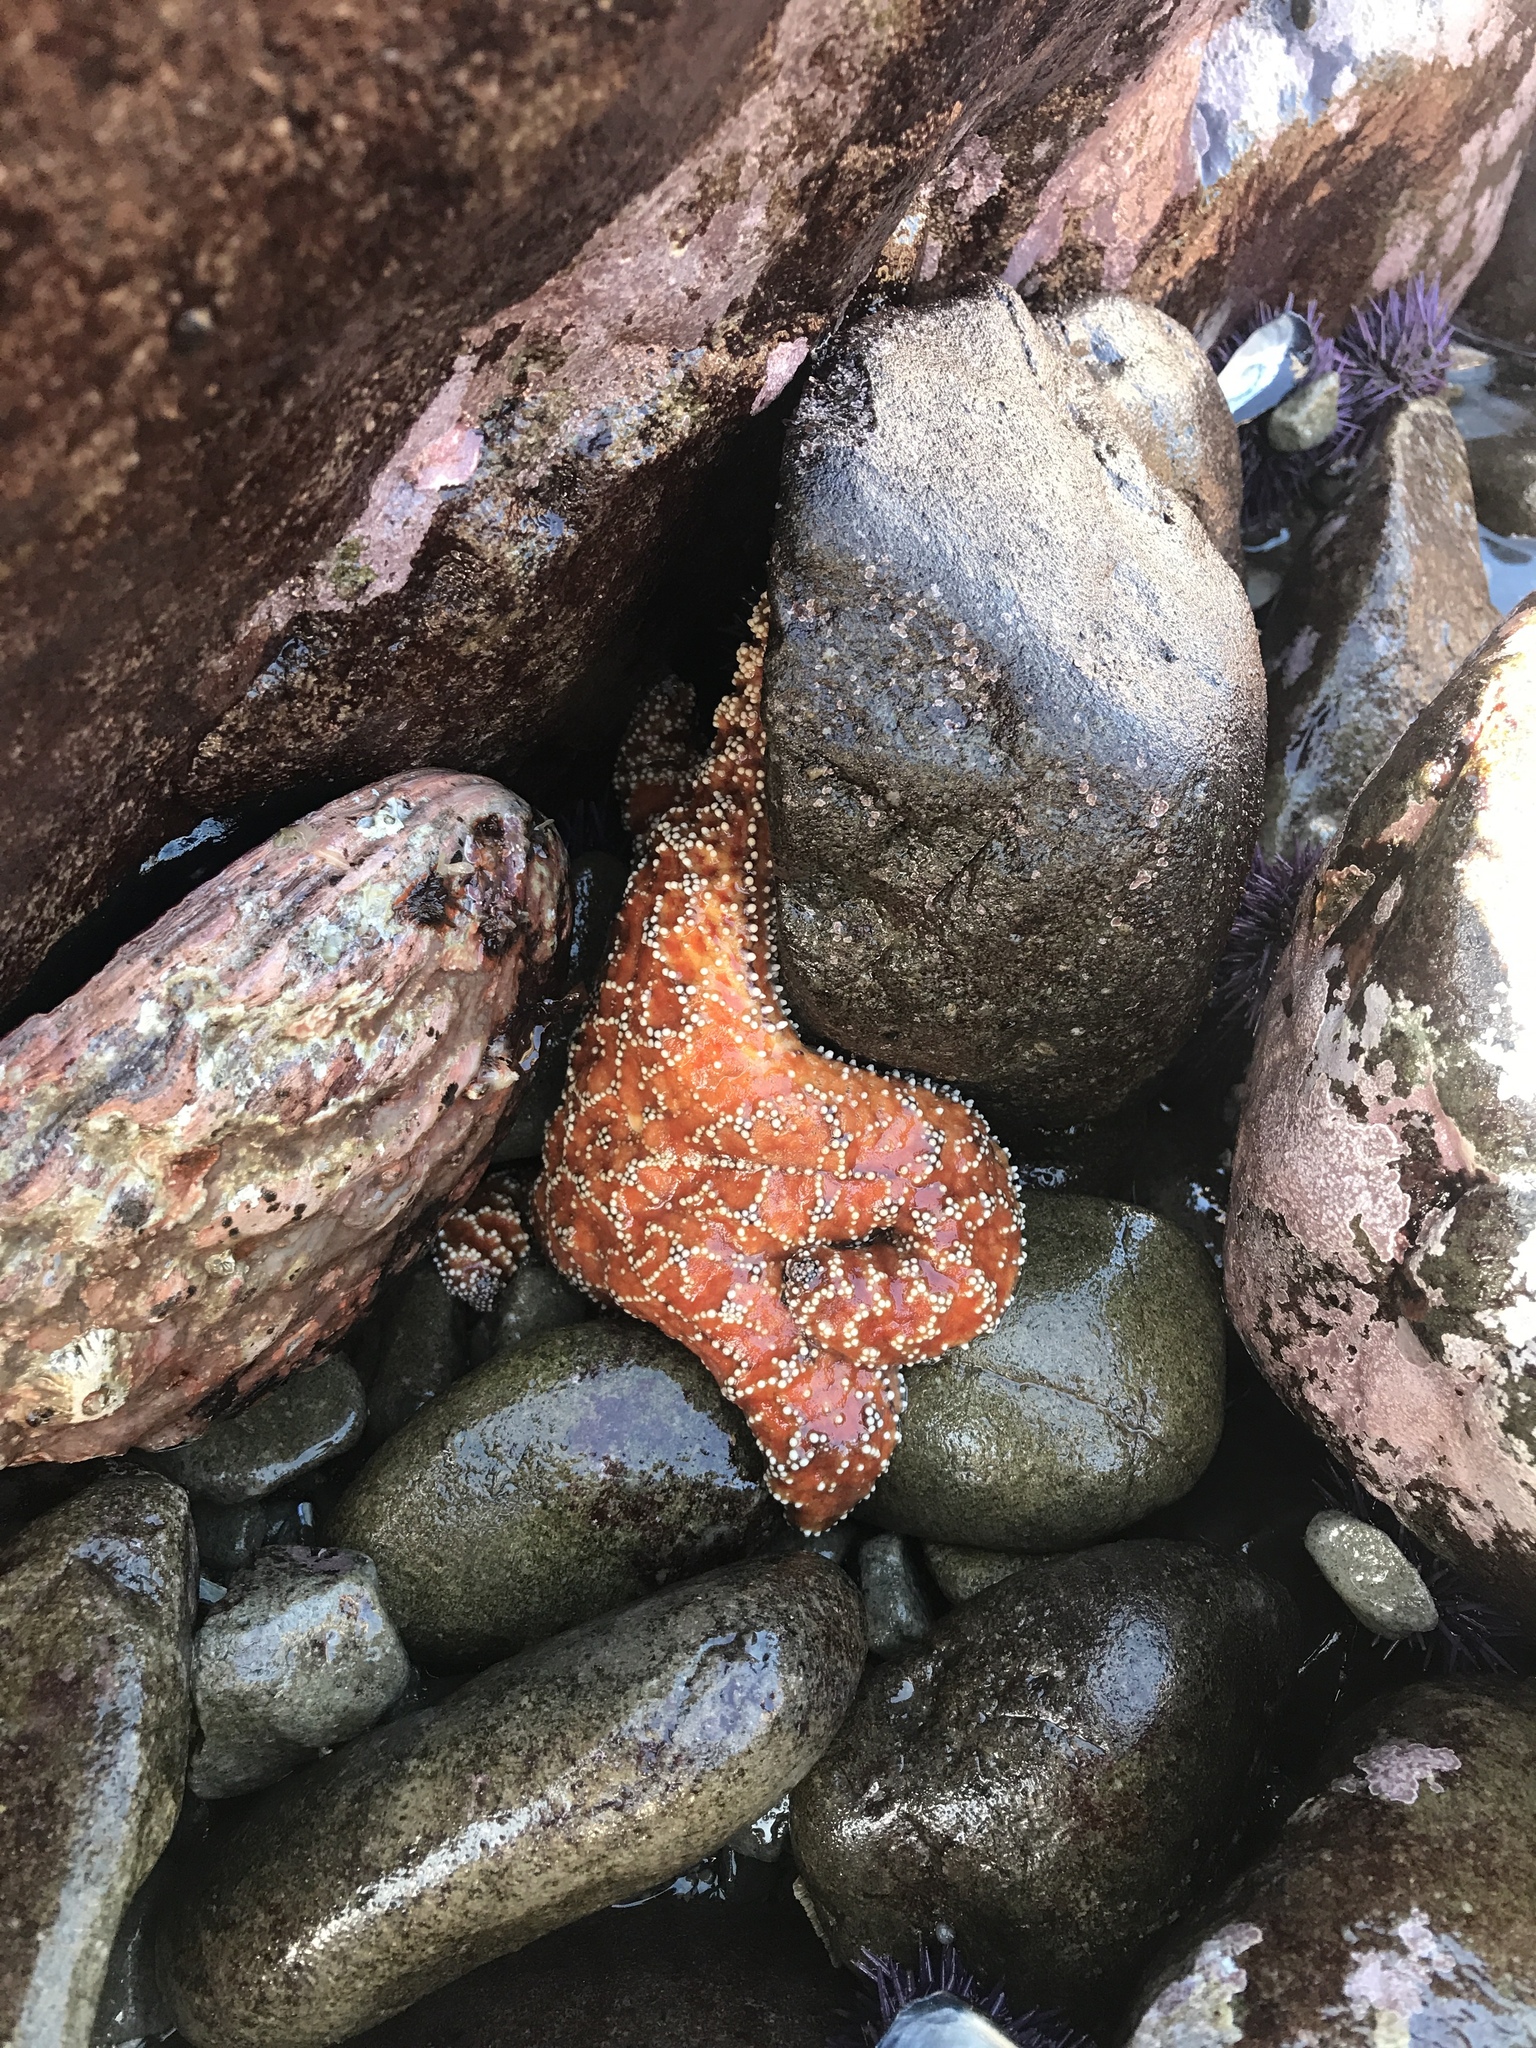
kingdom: Animalia
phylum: Echinodermata
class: Asteroidea
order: Forcipulatida
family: Asteriidae
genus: Pisaster
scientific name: Pisaster ochraceus
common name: Ochre stars
